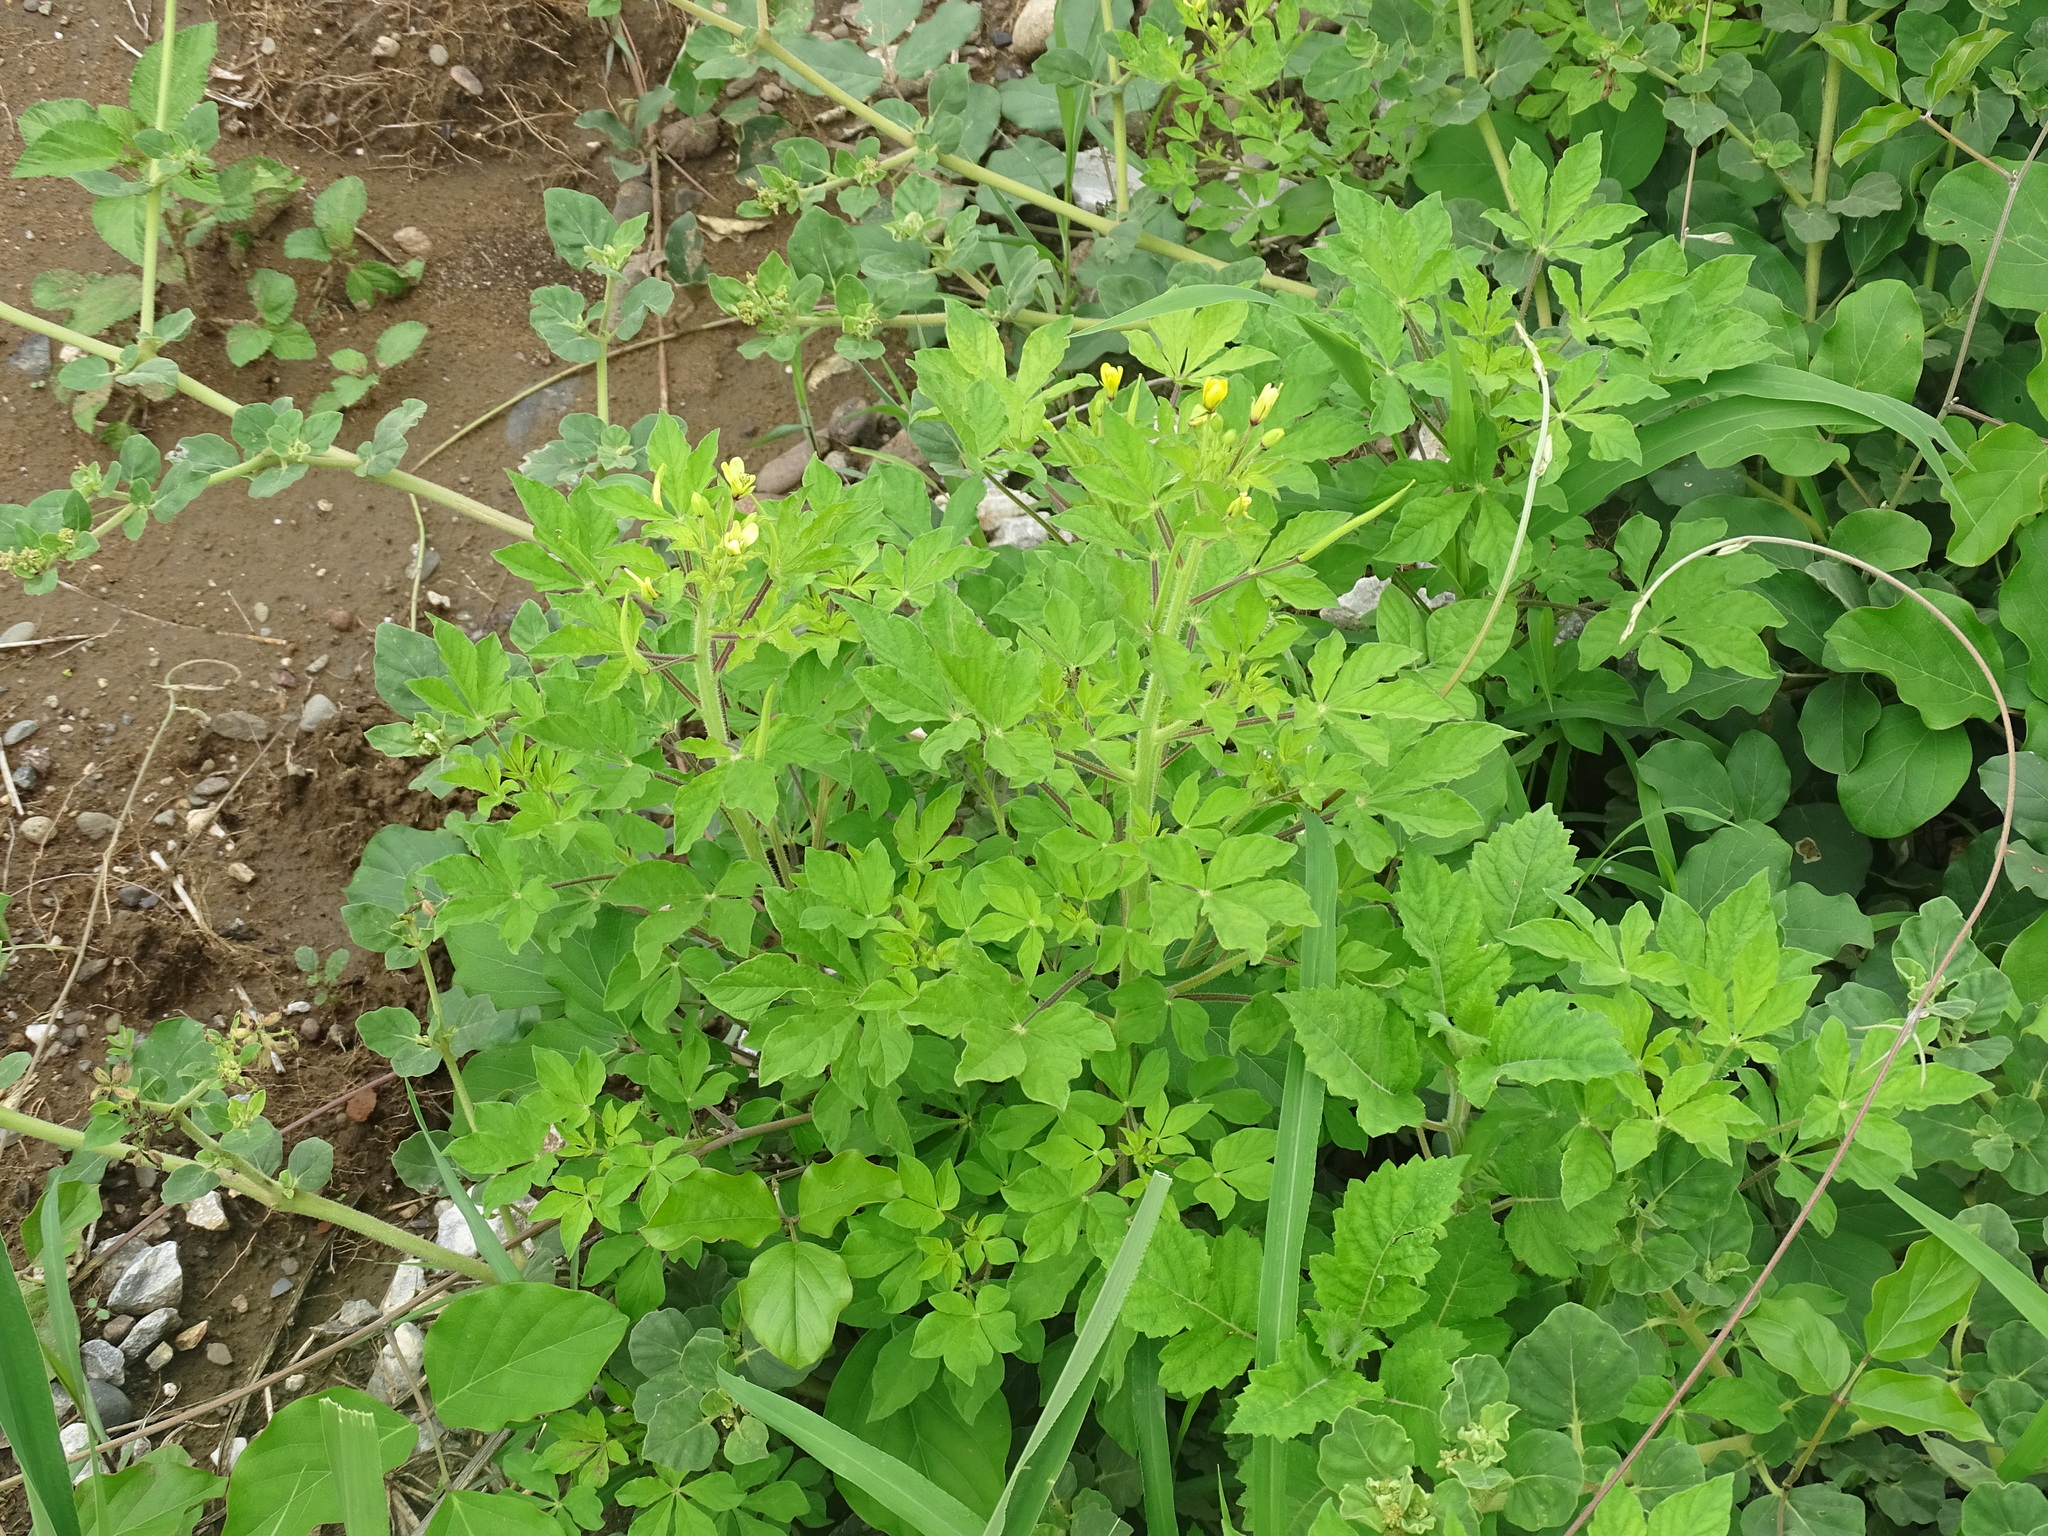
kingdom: Plantae
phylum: Tracheophyta
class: Magnoliopsida
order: Brassicales
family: Cleomaceae
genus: Arivela
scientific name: Arivela viscosa
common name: Asian spiderflower
